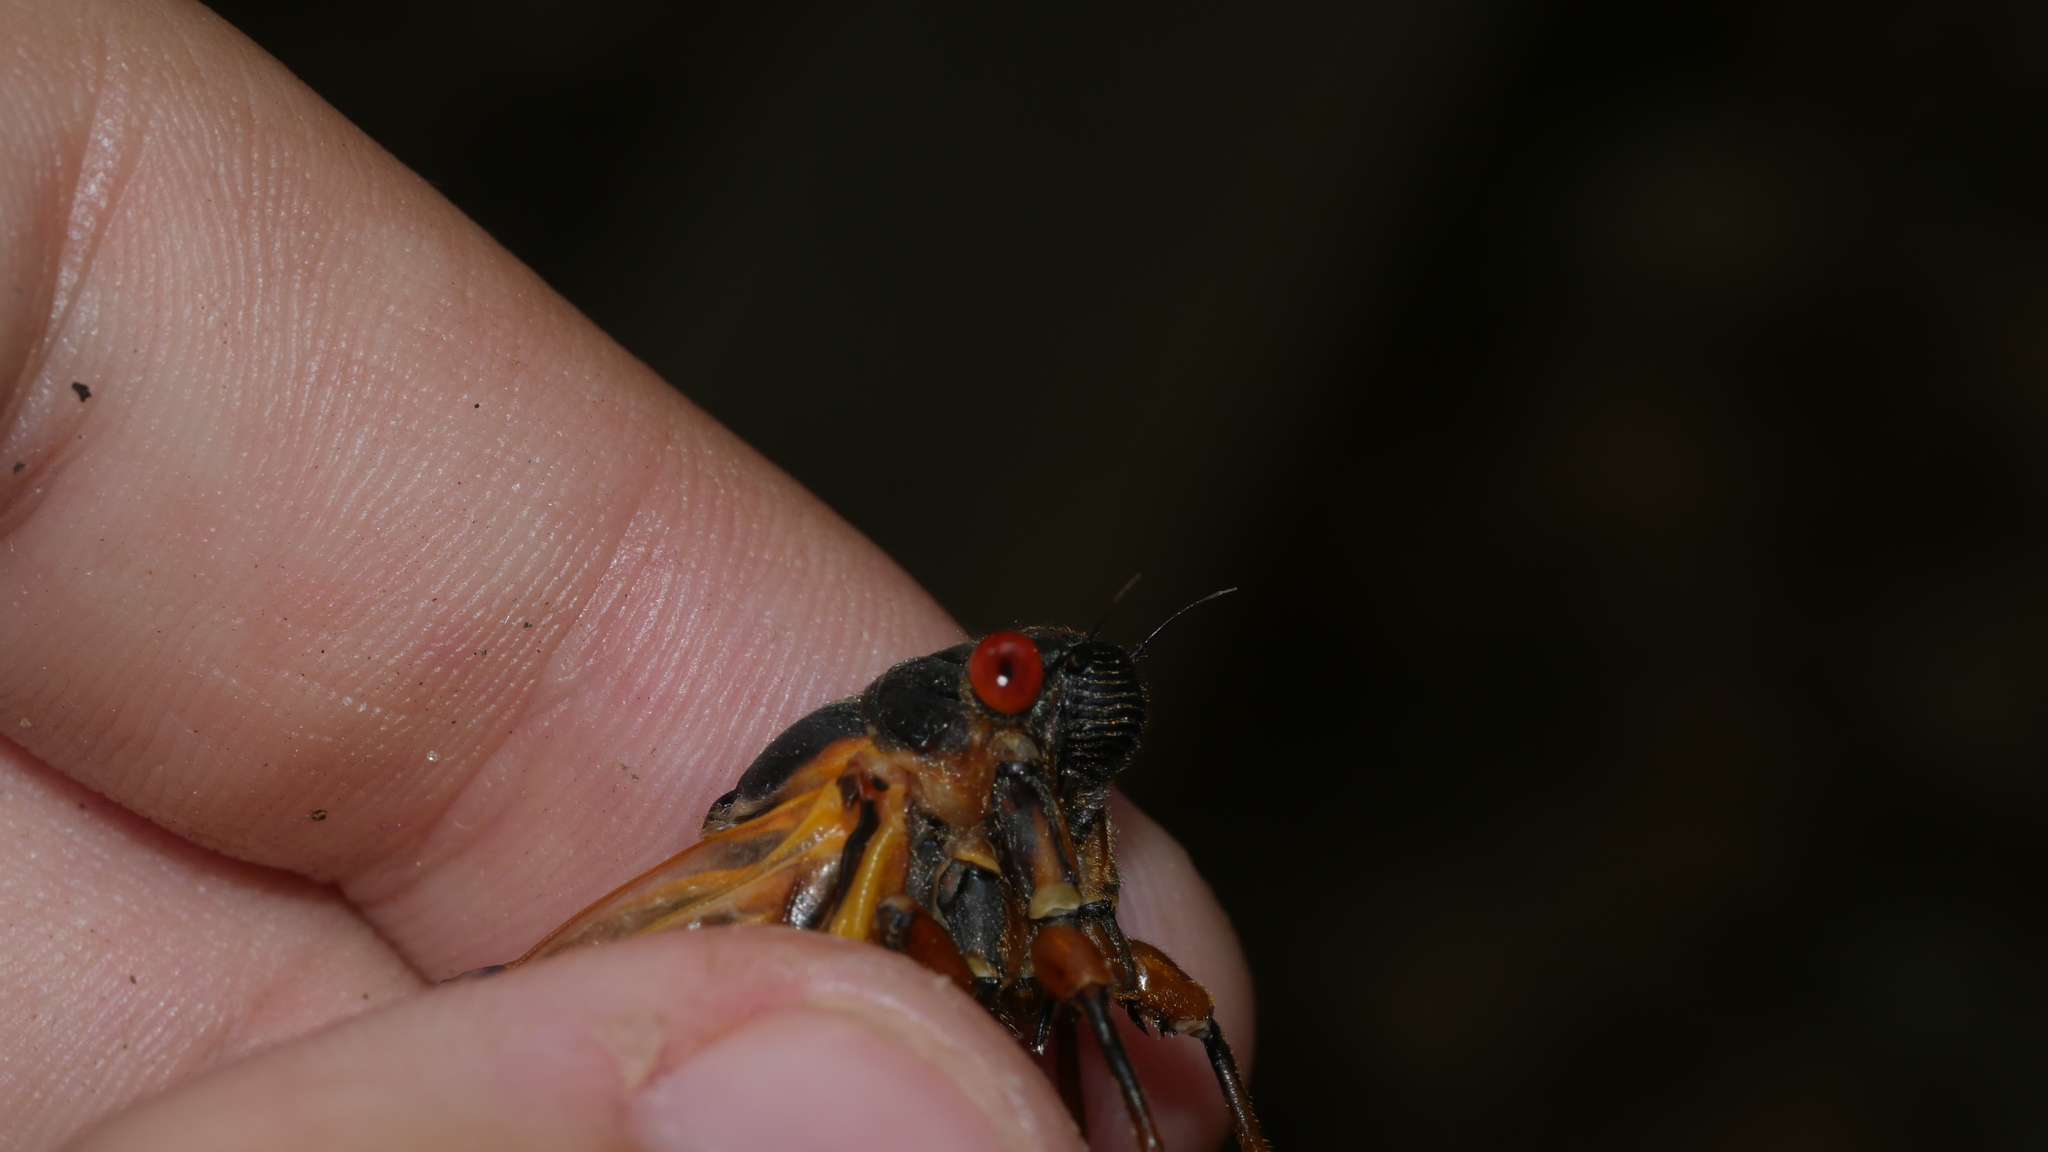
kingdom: Animalia
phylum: Arthropoda
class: Insecta
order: Hemiptera
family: Cicadidae
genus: Magicicada
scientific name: Magicicada septendecim
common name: Periodical cicada
